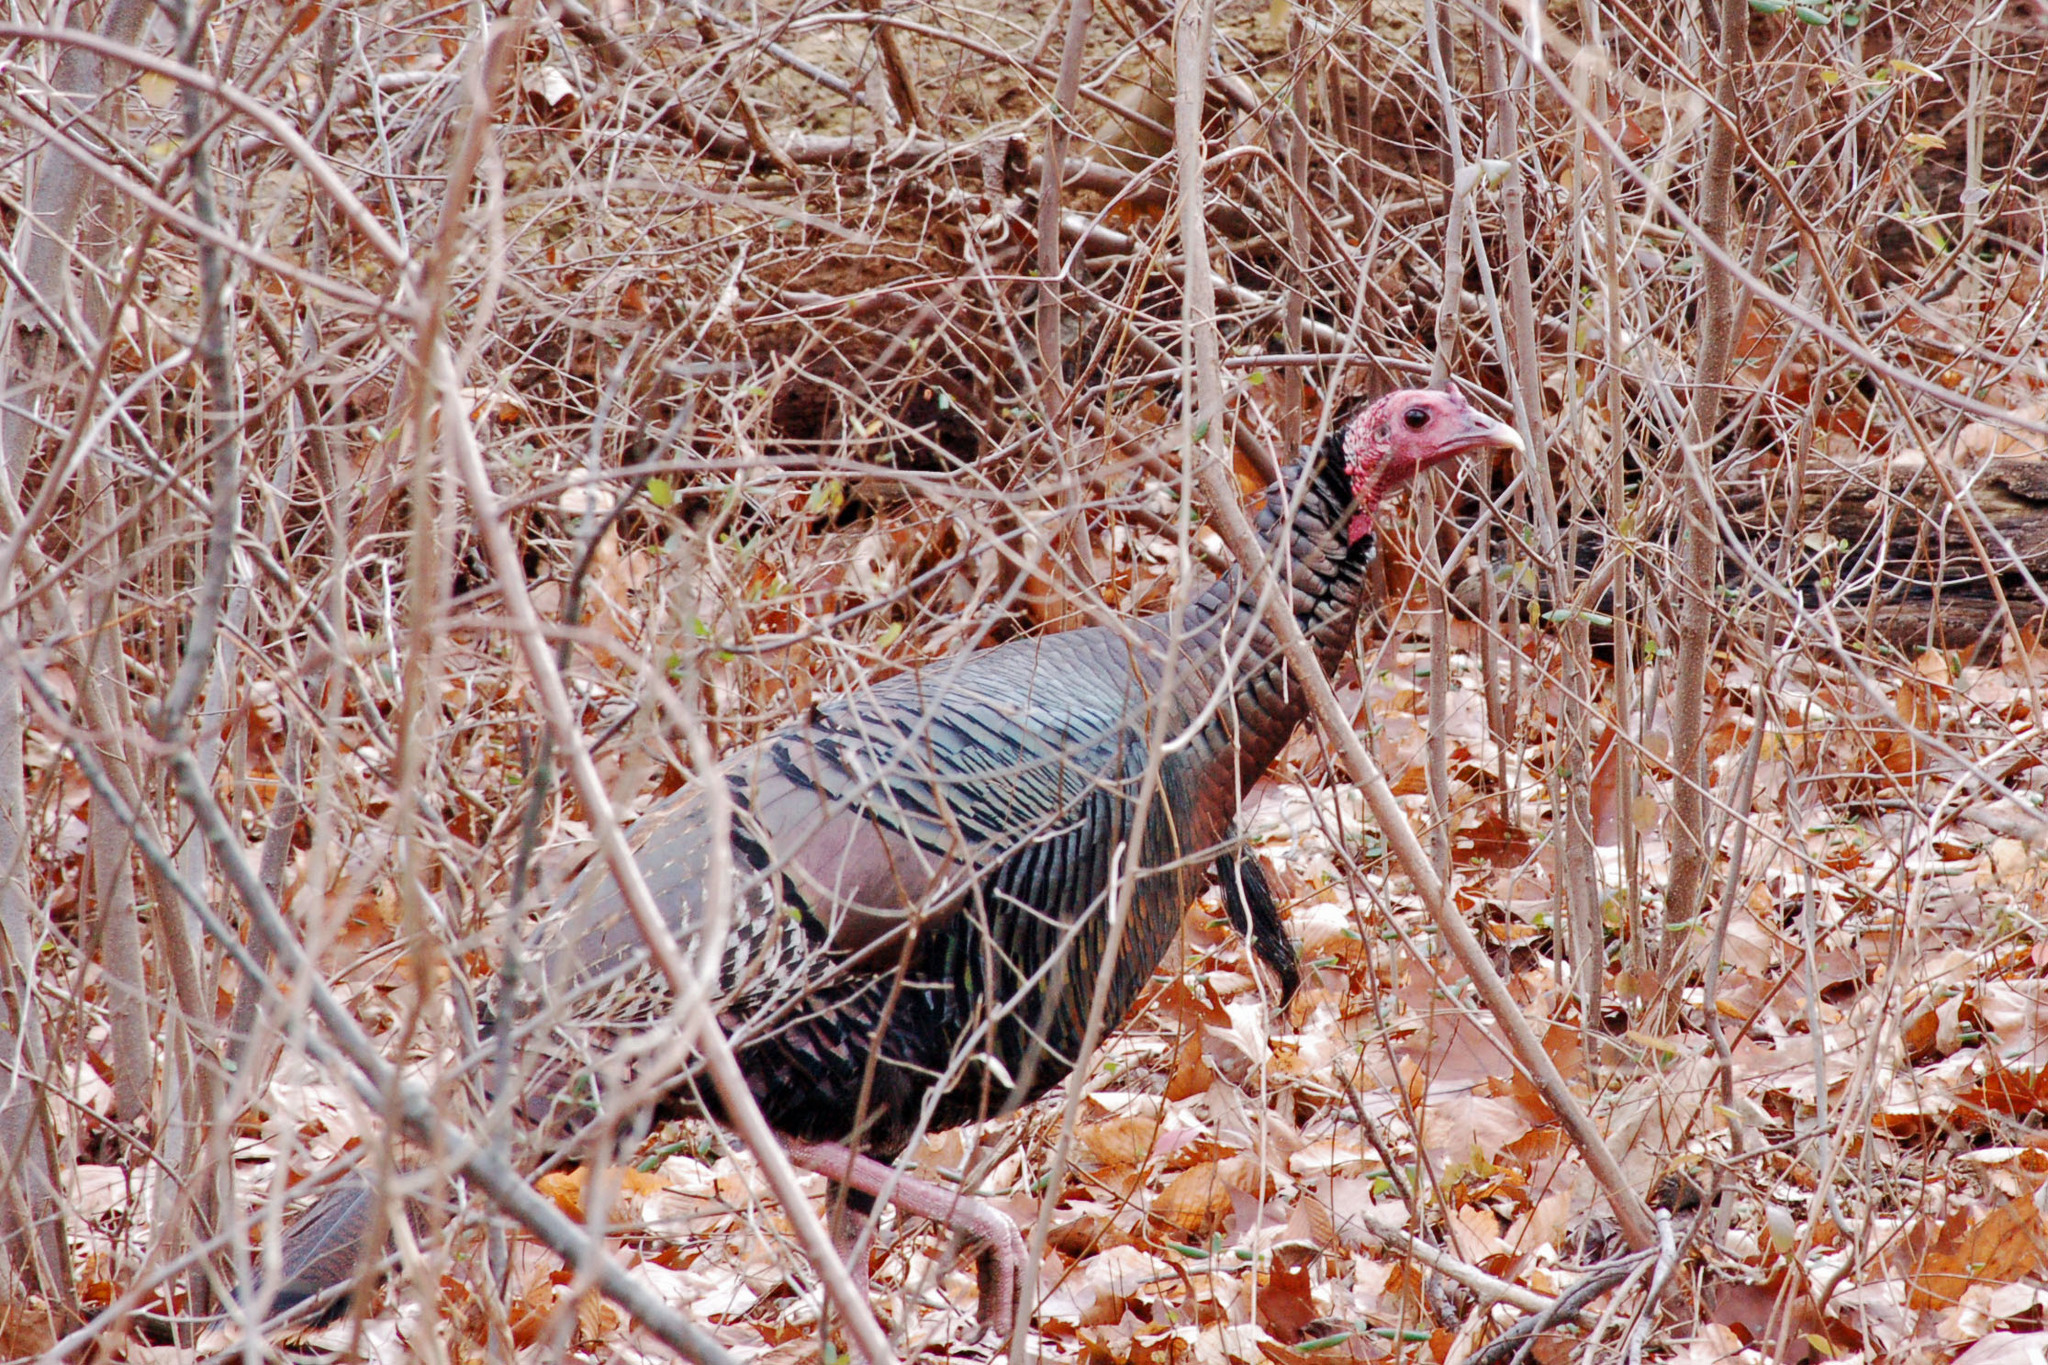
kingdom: Animalia
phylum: Chordata
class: Aves
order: Galliformes
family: Phasianidae
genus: Meleagris
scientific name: Meleagris gallopavo
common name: Wild turkey
